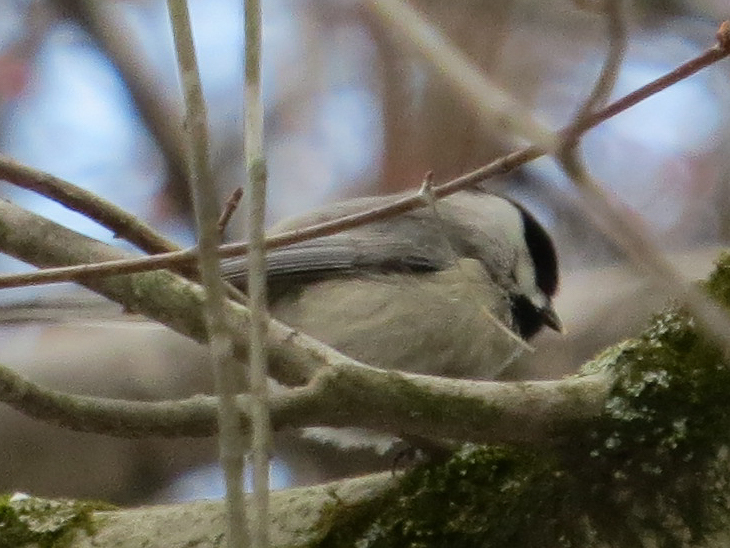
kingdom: Animalia
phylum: Chordata
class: Aves
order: Passeriformes
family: Paridae
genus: Poecile
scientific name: Poecile carolinensis
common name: Carolina chickadee
